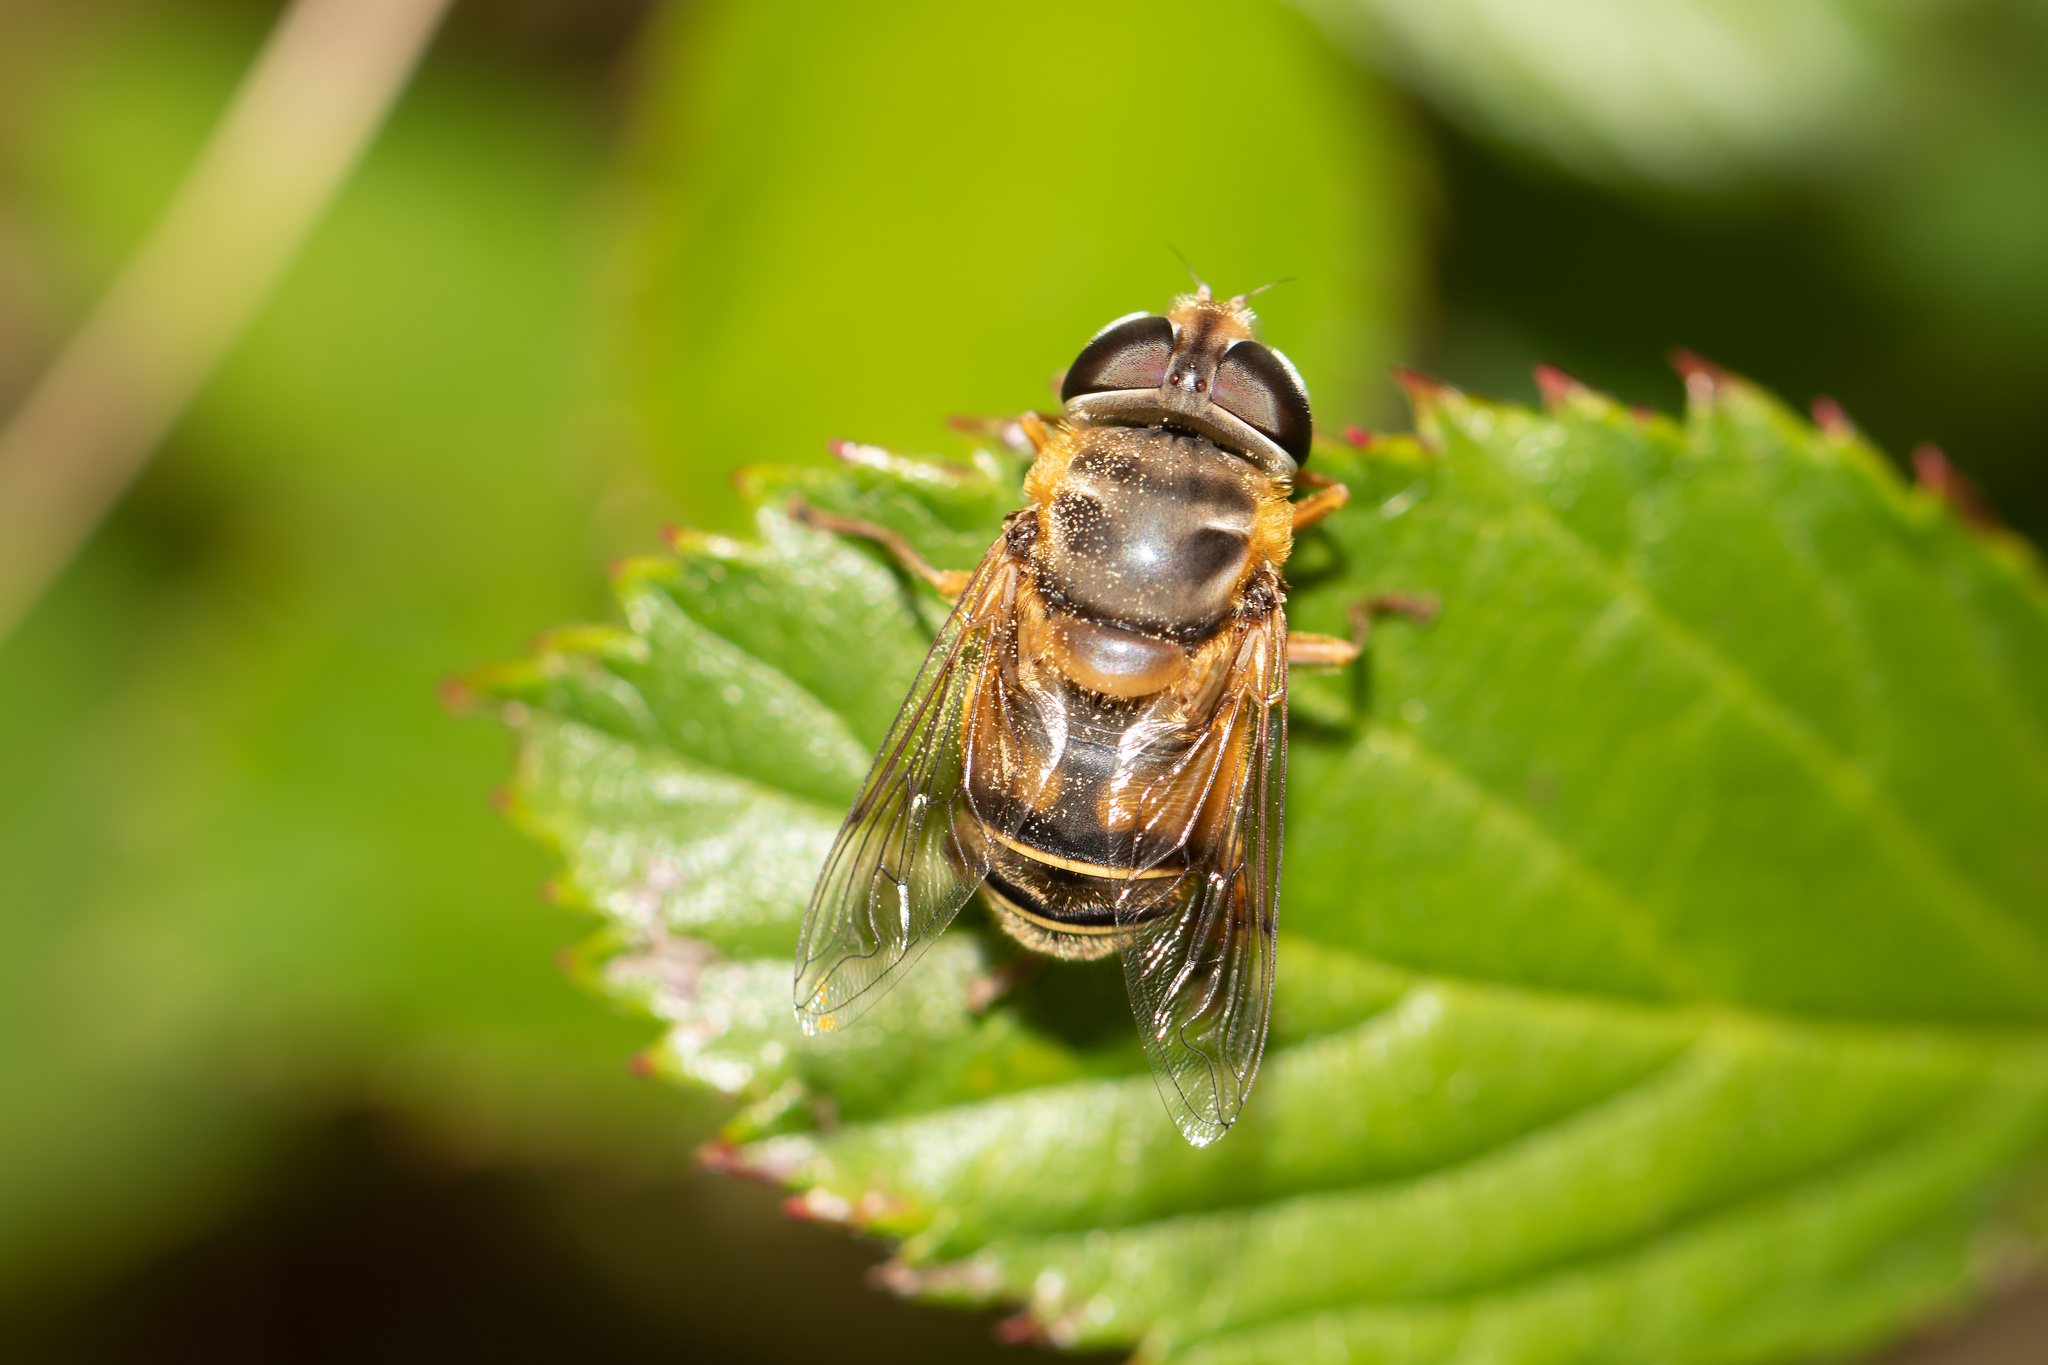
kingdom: Animalia
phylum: Arthropoda
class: Insecta
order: Diptera
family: Syrphidae
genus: Palpada
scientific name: Palpada vinetorum
